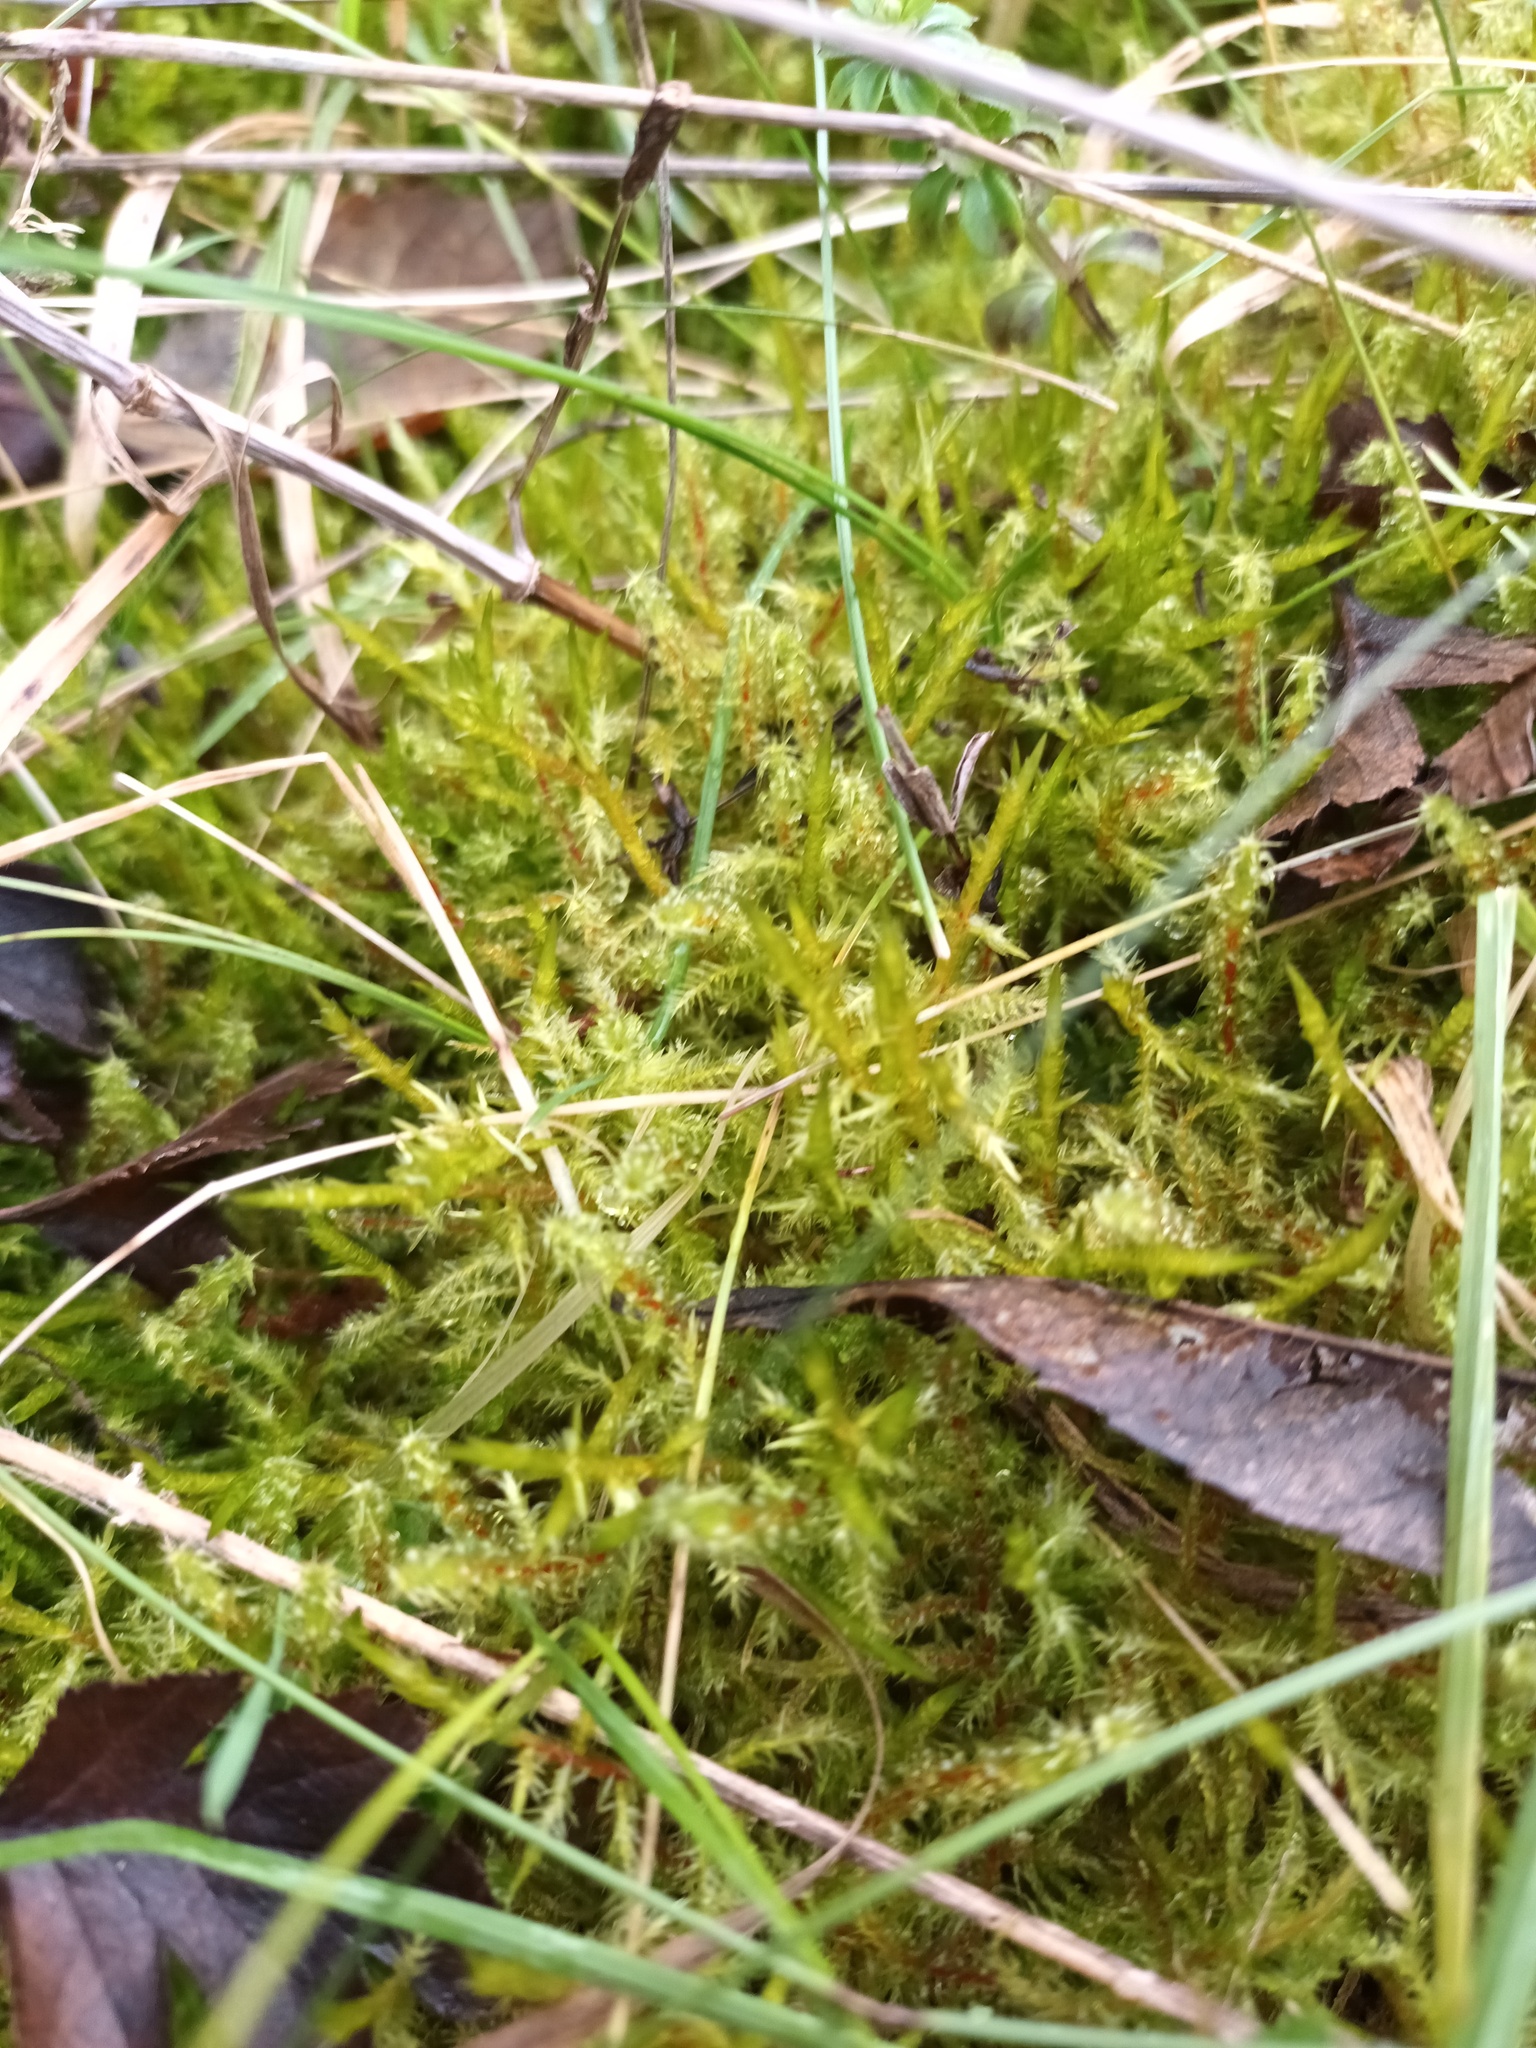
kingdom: Plantae
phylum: Bryophyta
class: Bryopsida
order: Hypnales
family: Hylocomiaceae
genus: Rhytidiadelphus
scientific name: Rhytidiadelphus squarrosus
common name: Springy turf-moss
